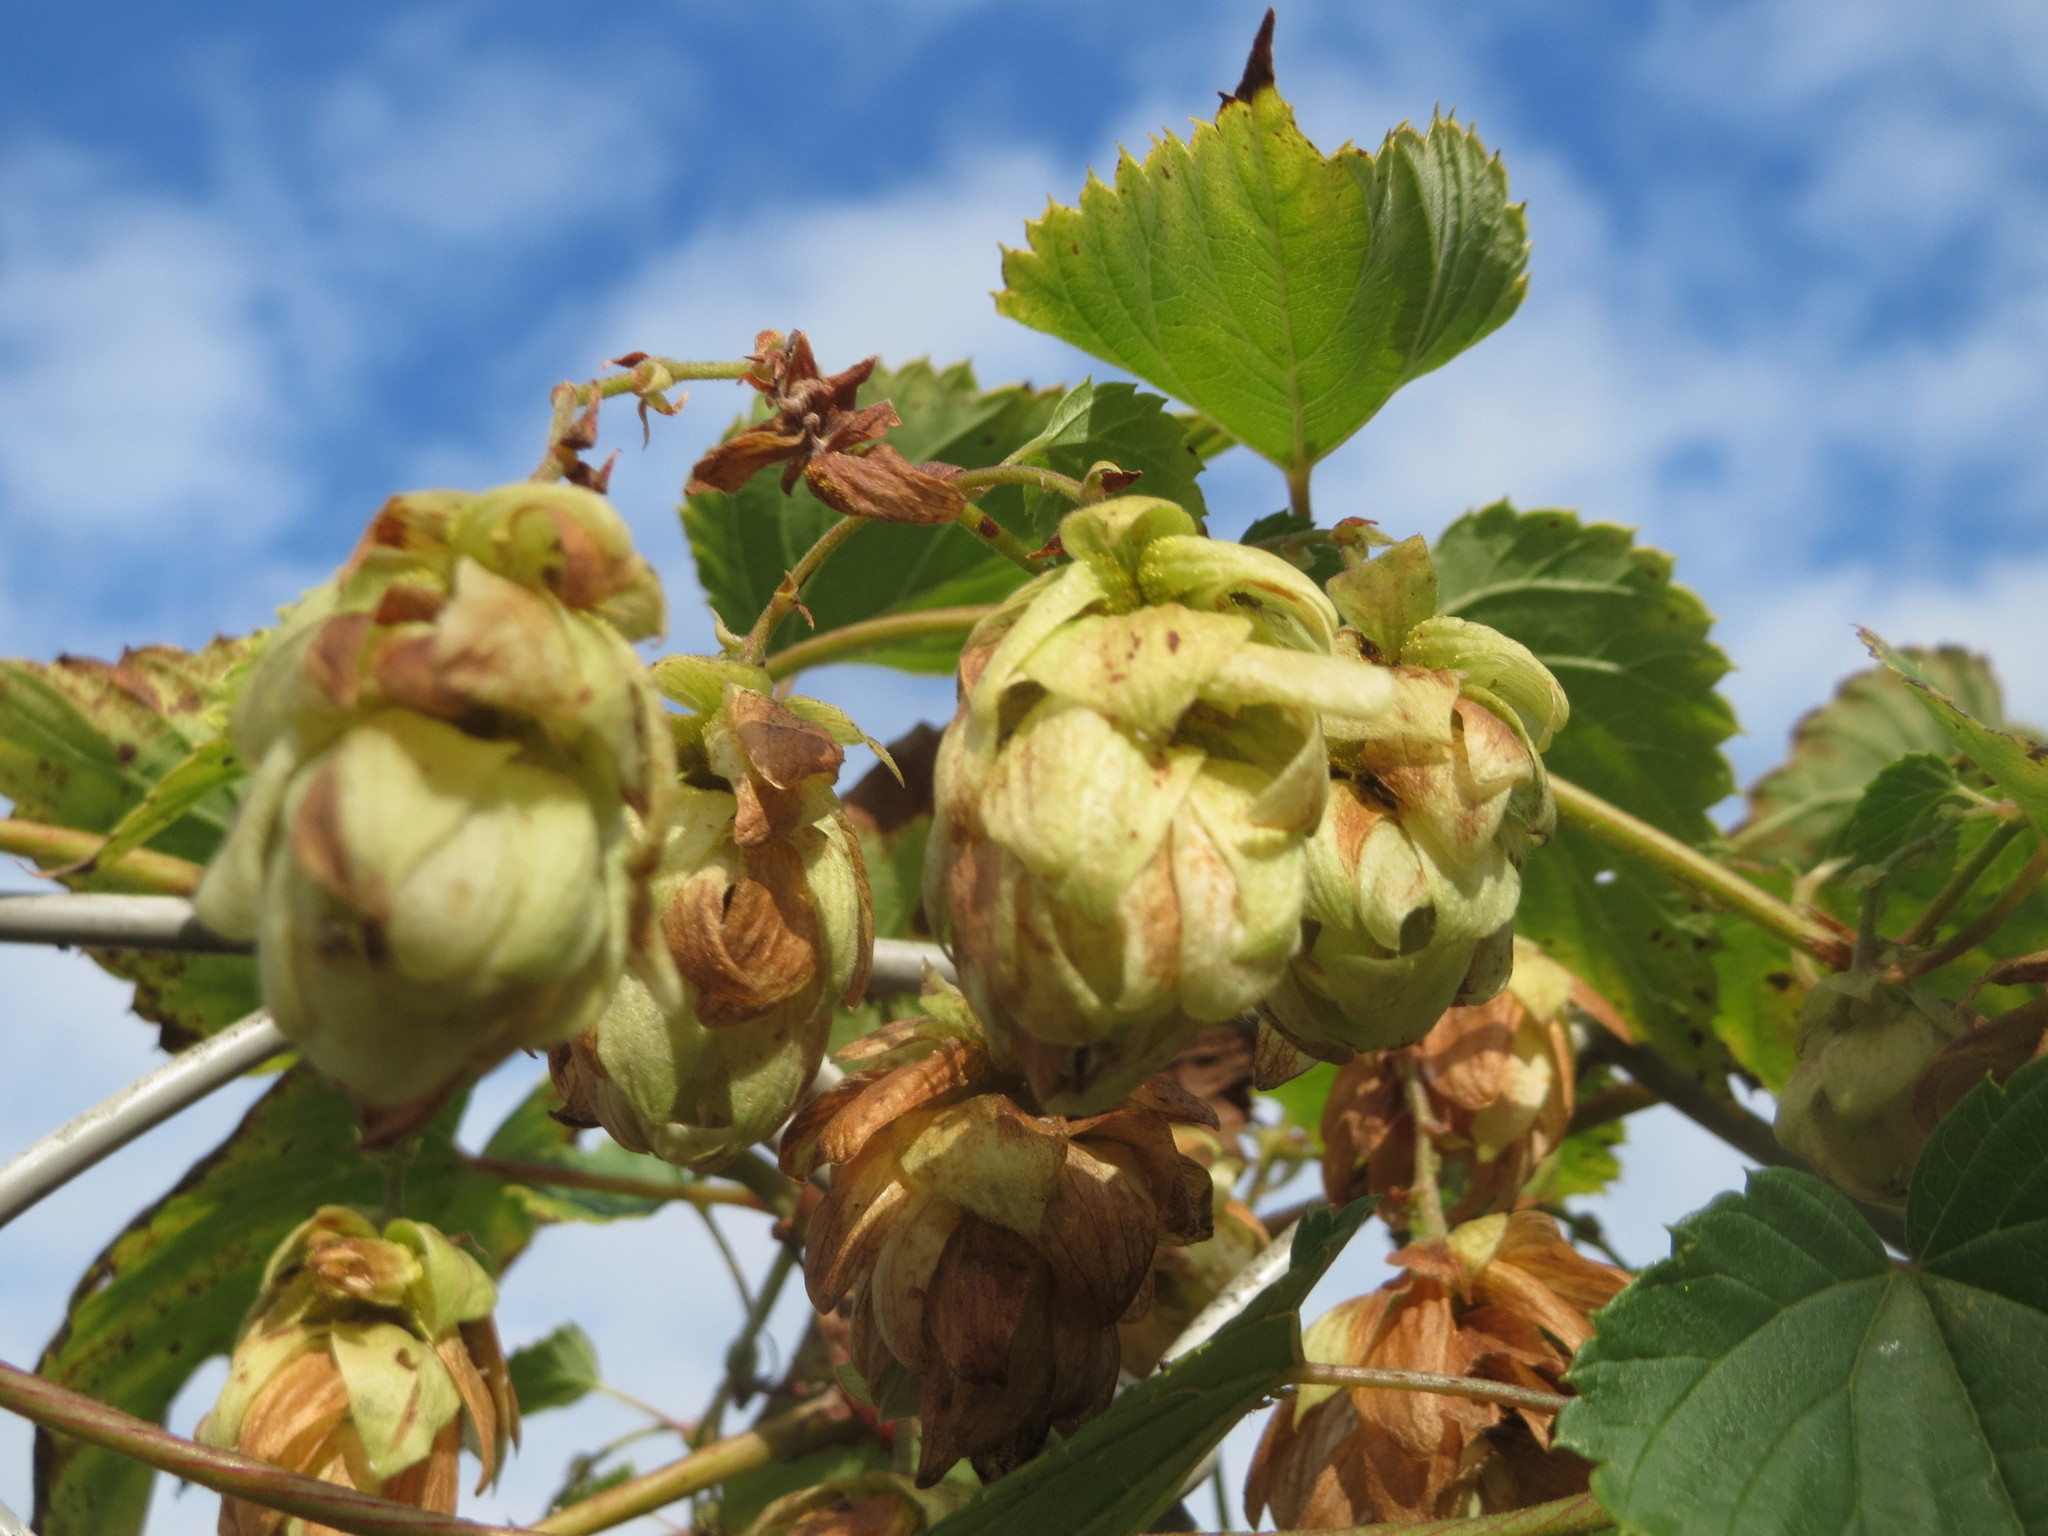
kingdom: Plantae
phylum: Tracheophyta
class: Magnoliopsida
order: Rosales
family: Cannabaceae
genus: Humulus
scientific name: Humulus lupulus
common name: Hop
